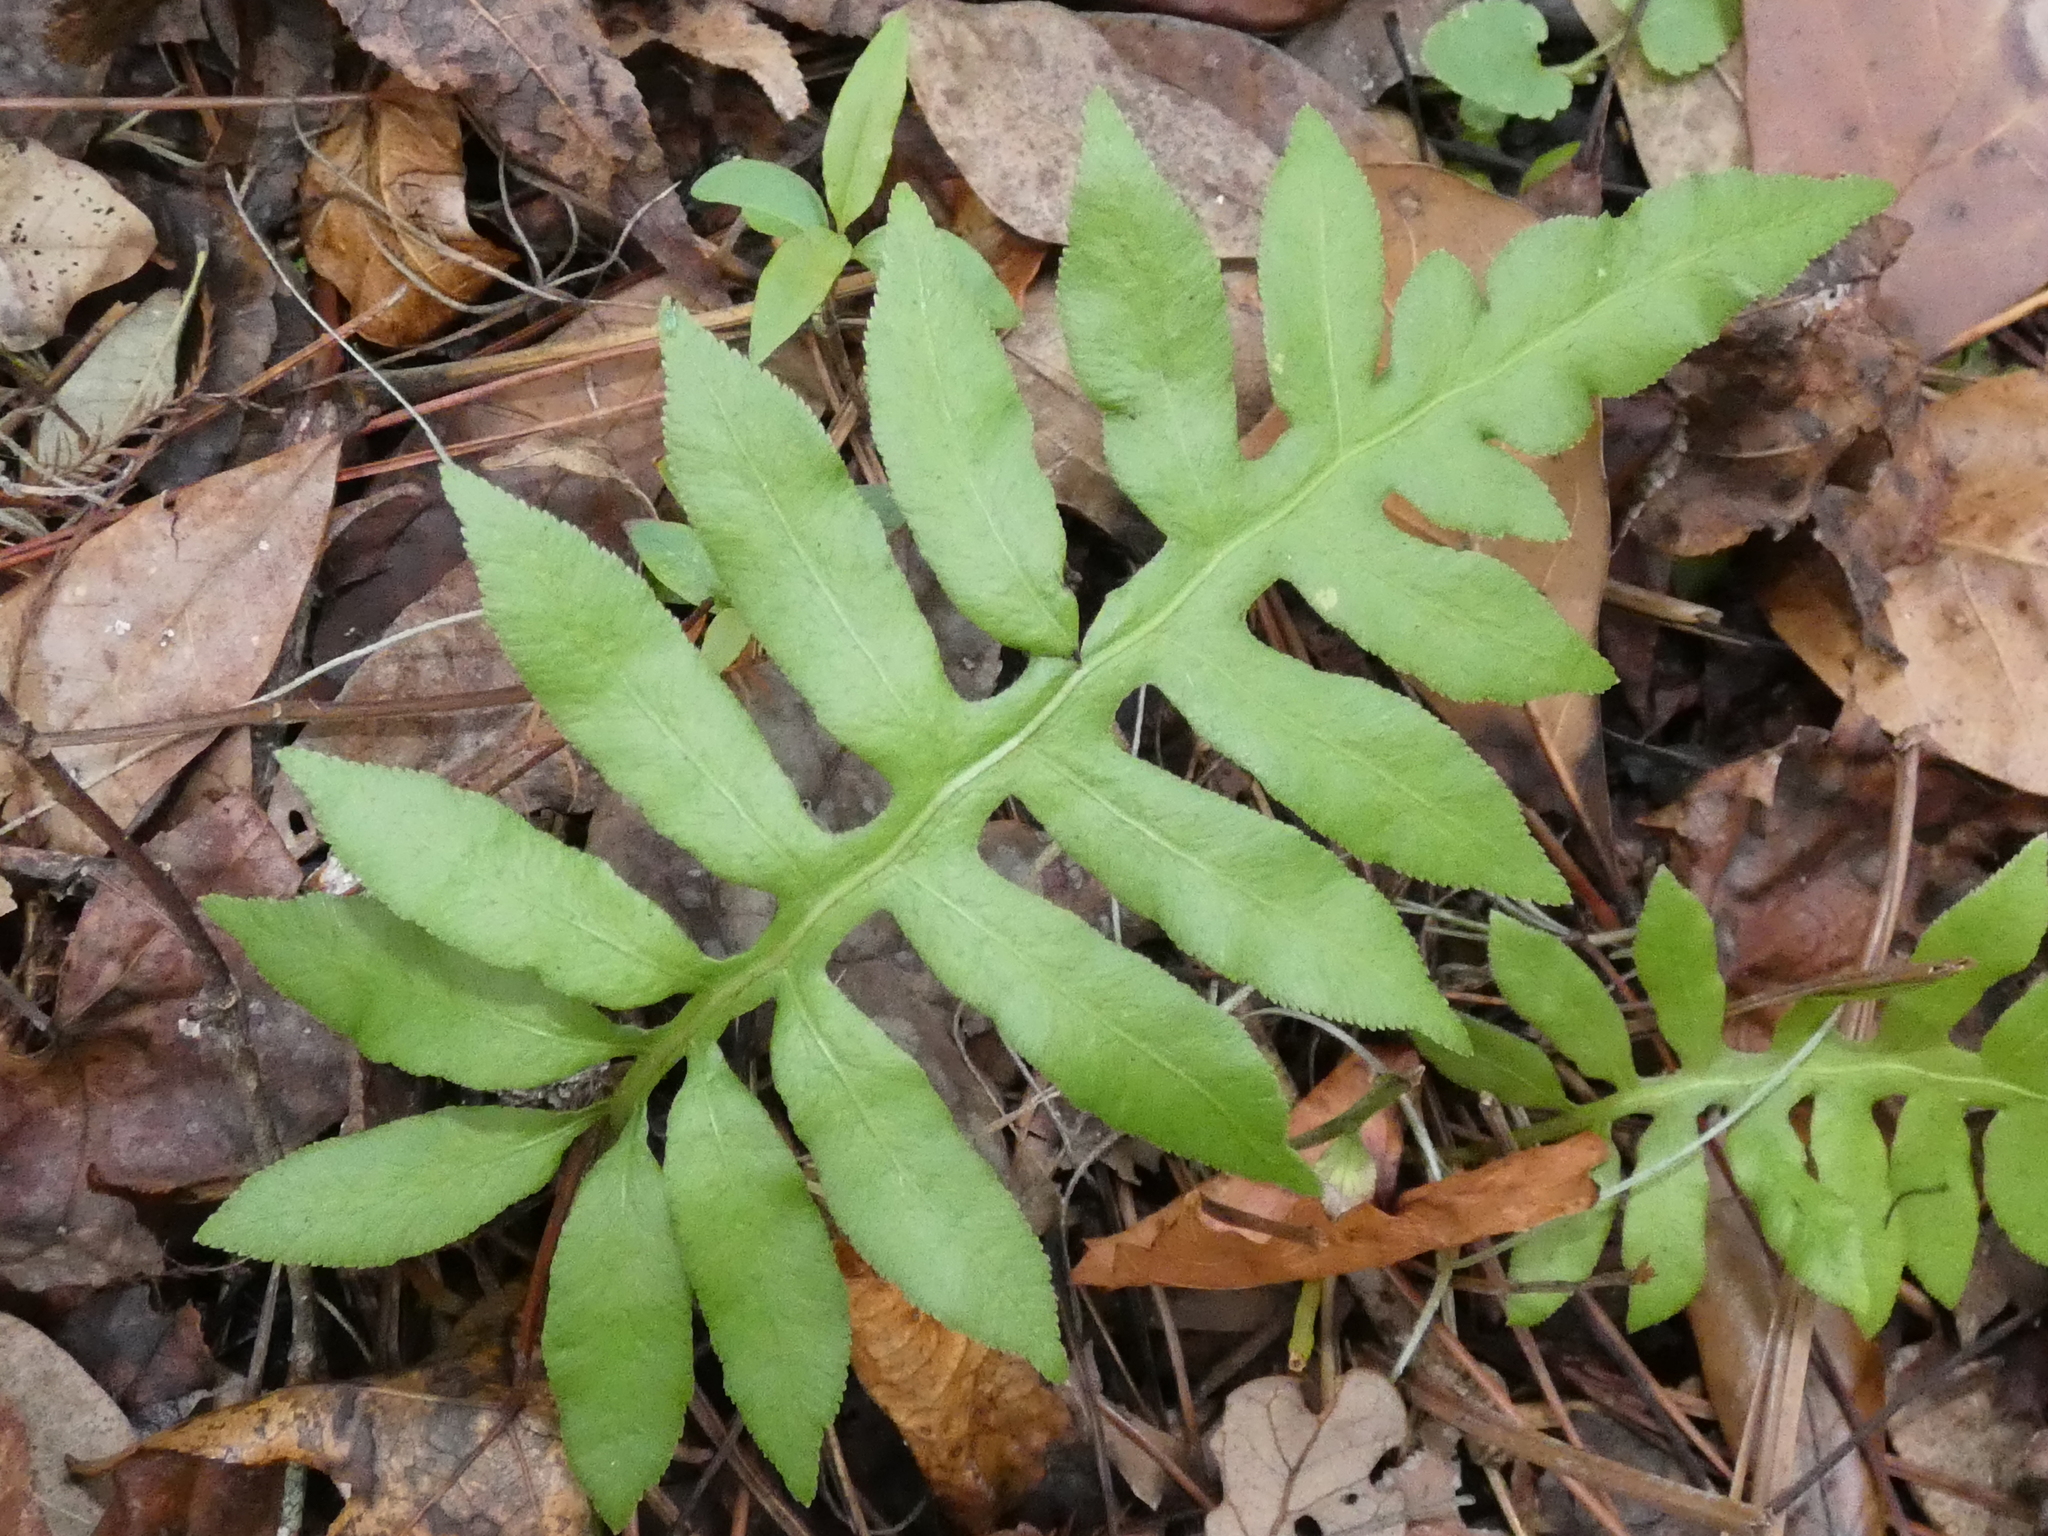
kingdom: Plantae
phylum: Tracheophyta
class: Polypodiopsida
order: Polypodiales
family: Blechnaceae
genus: Lorinseria
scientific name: Lorinseria areolata
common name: Dwarf chain fern
